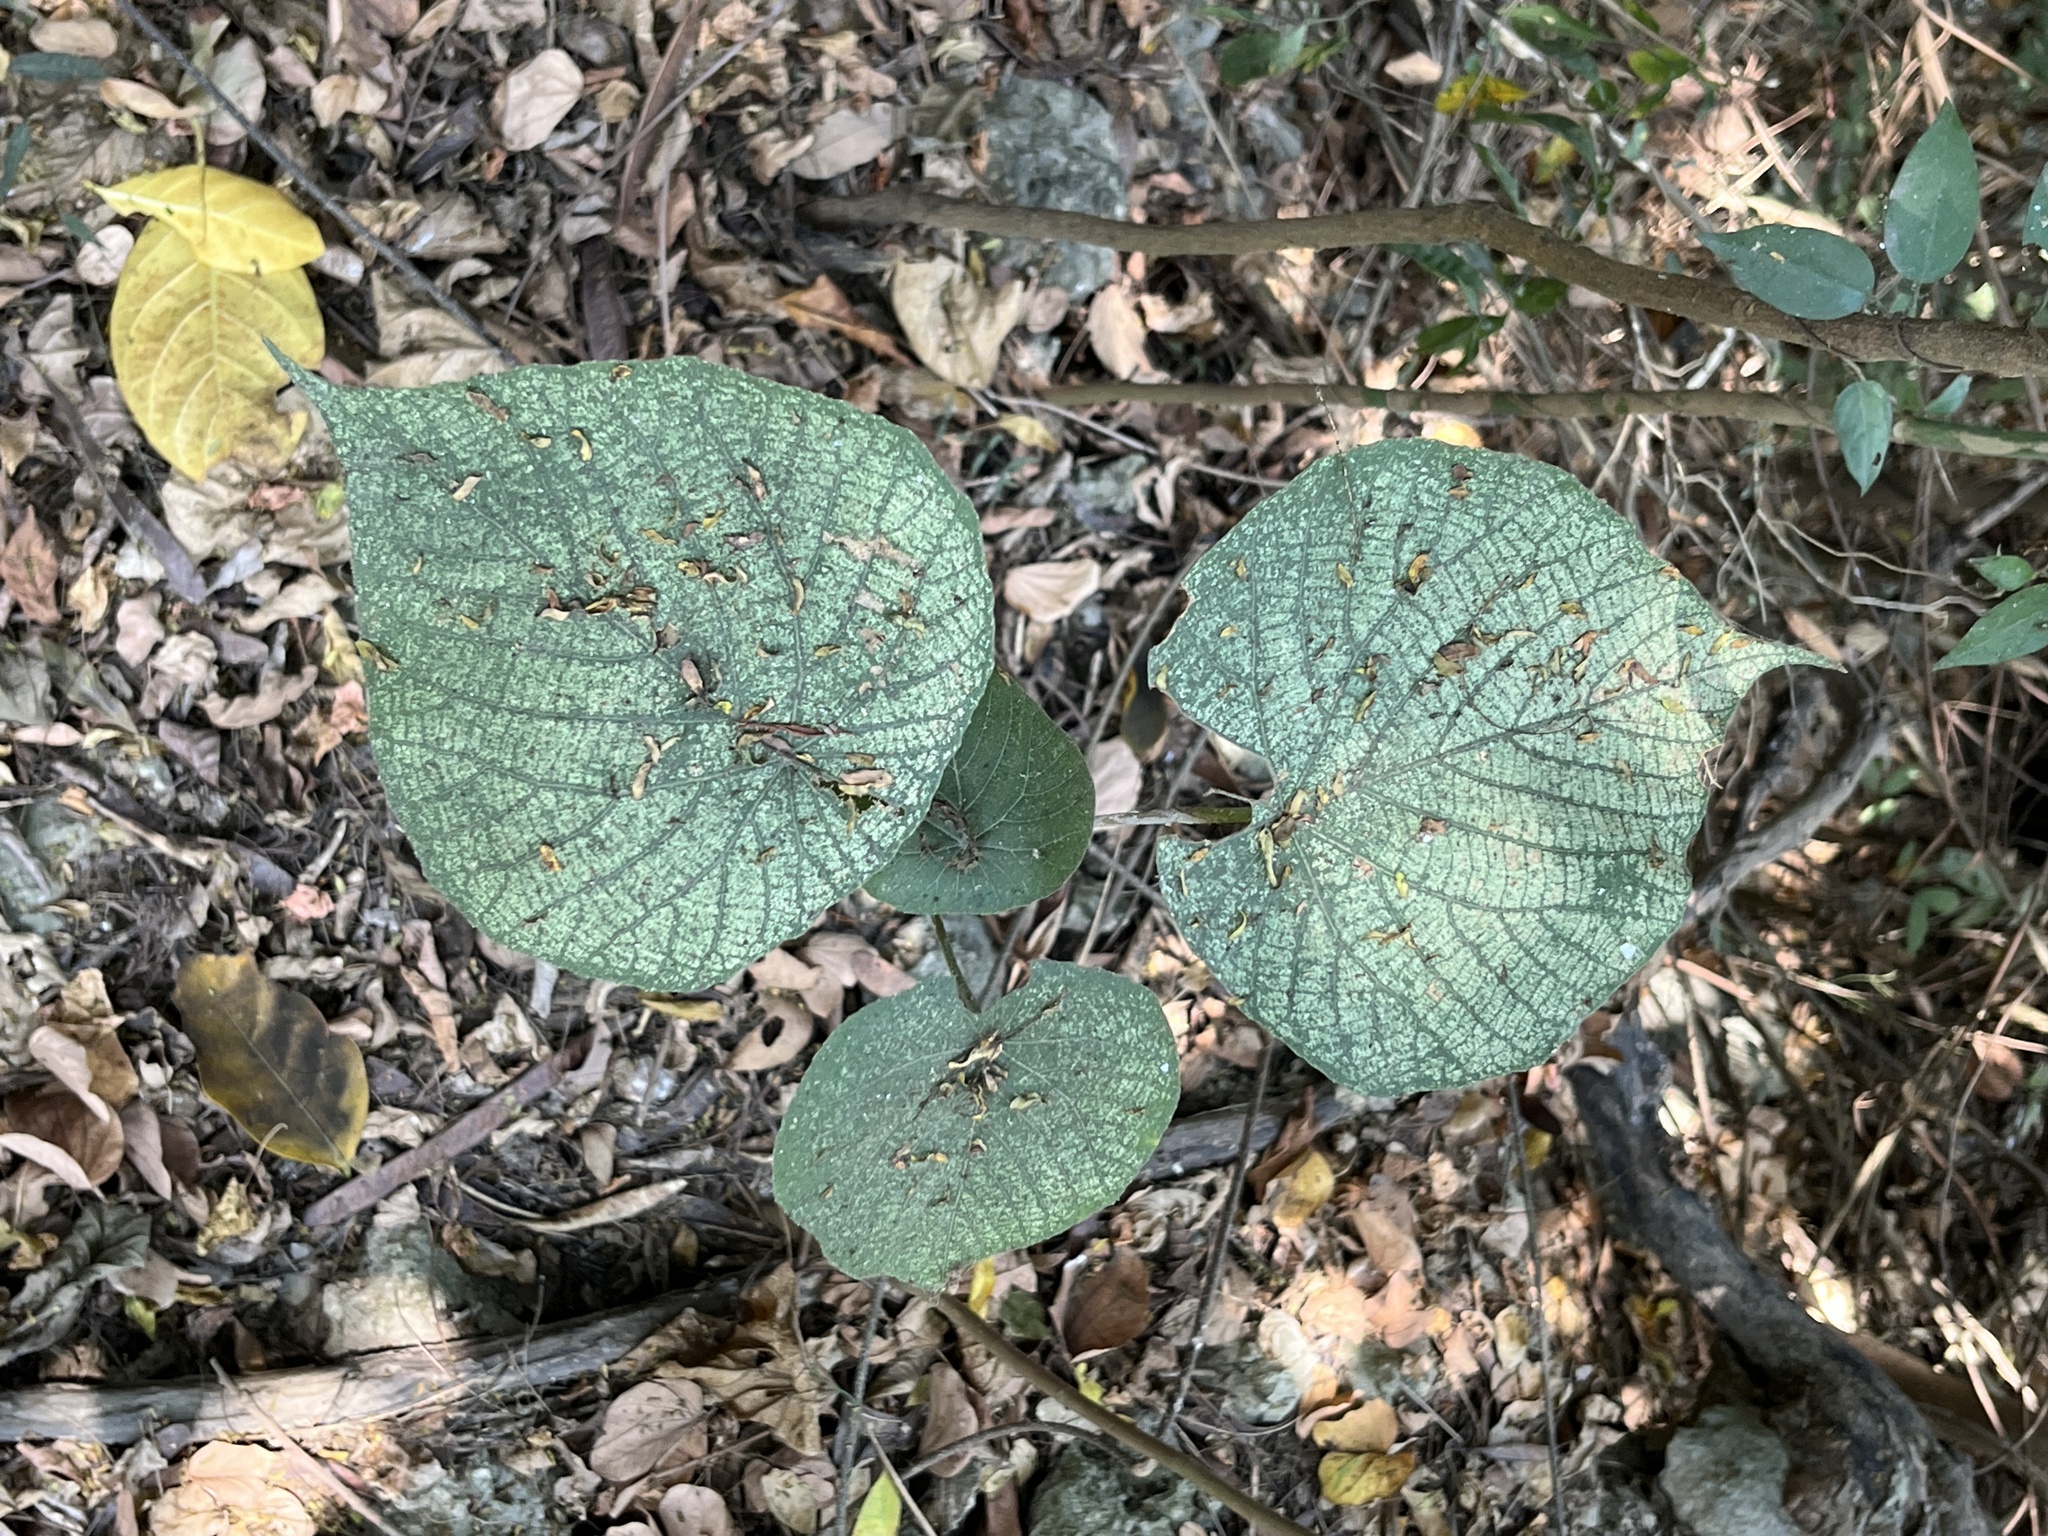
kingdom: Plantae
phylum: Tracheophyta
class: Magnoliopsida
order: Malpighiales
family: Euphorbiaceae
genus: Macaranga
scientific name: Macaranga tanarius
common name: Parasol leaf tree
